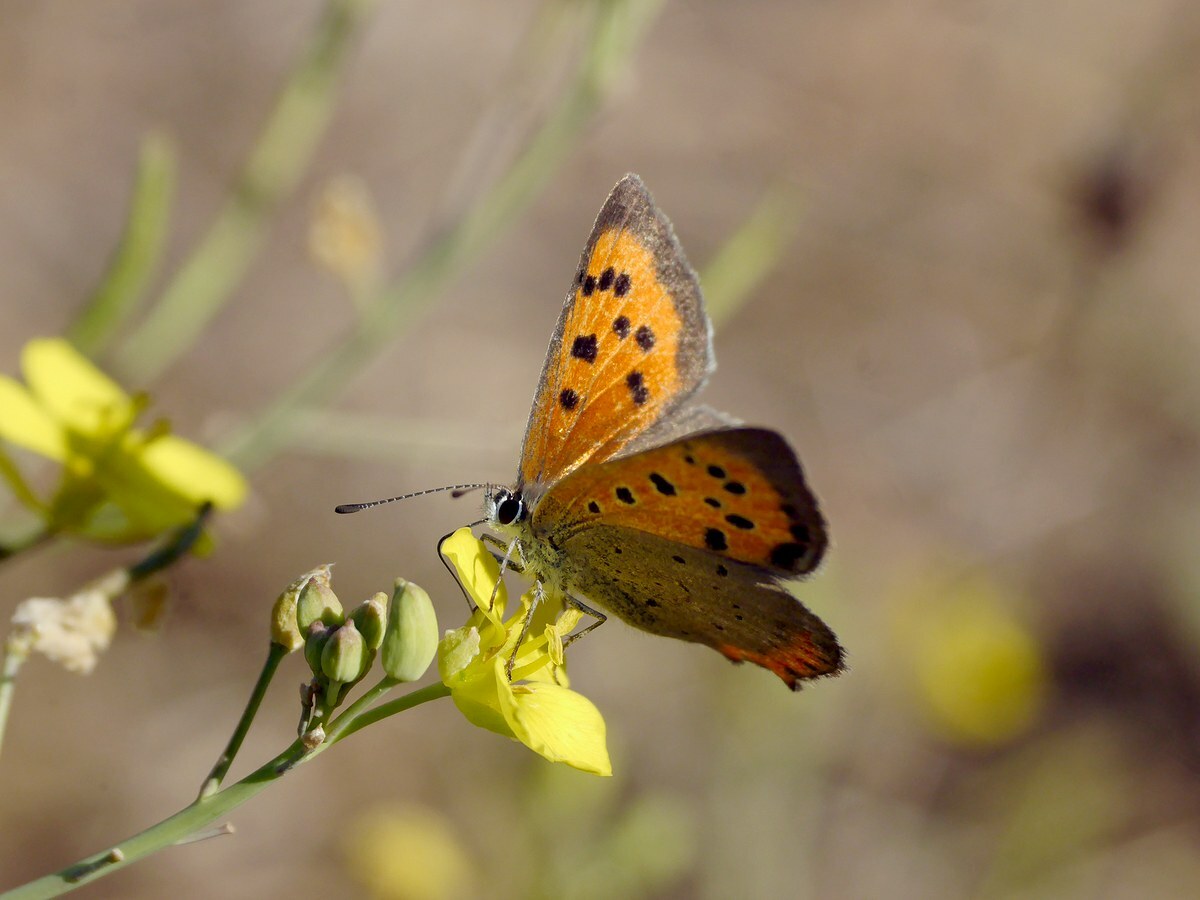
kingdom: Animalia
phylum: Arthropoda
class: Insecta
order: Lepidoptera
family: Lycaenidae
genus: Lycaena
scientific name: Lycaena phlaeas
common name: Small copper
